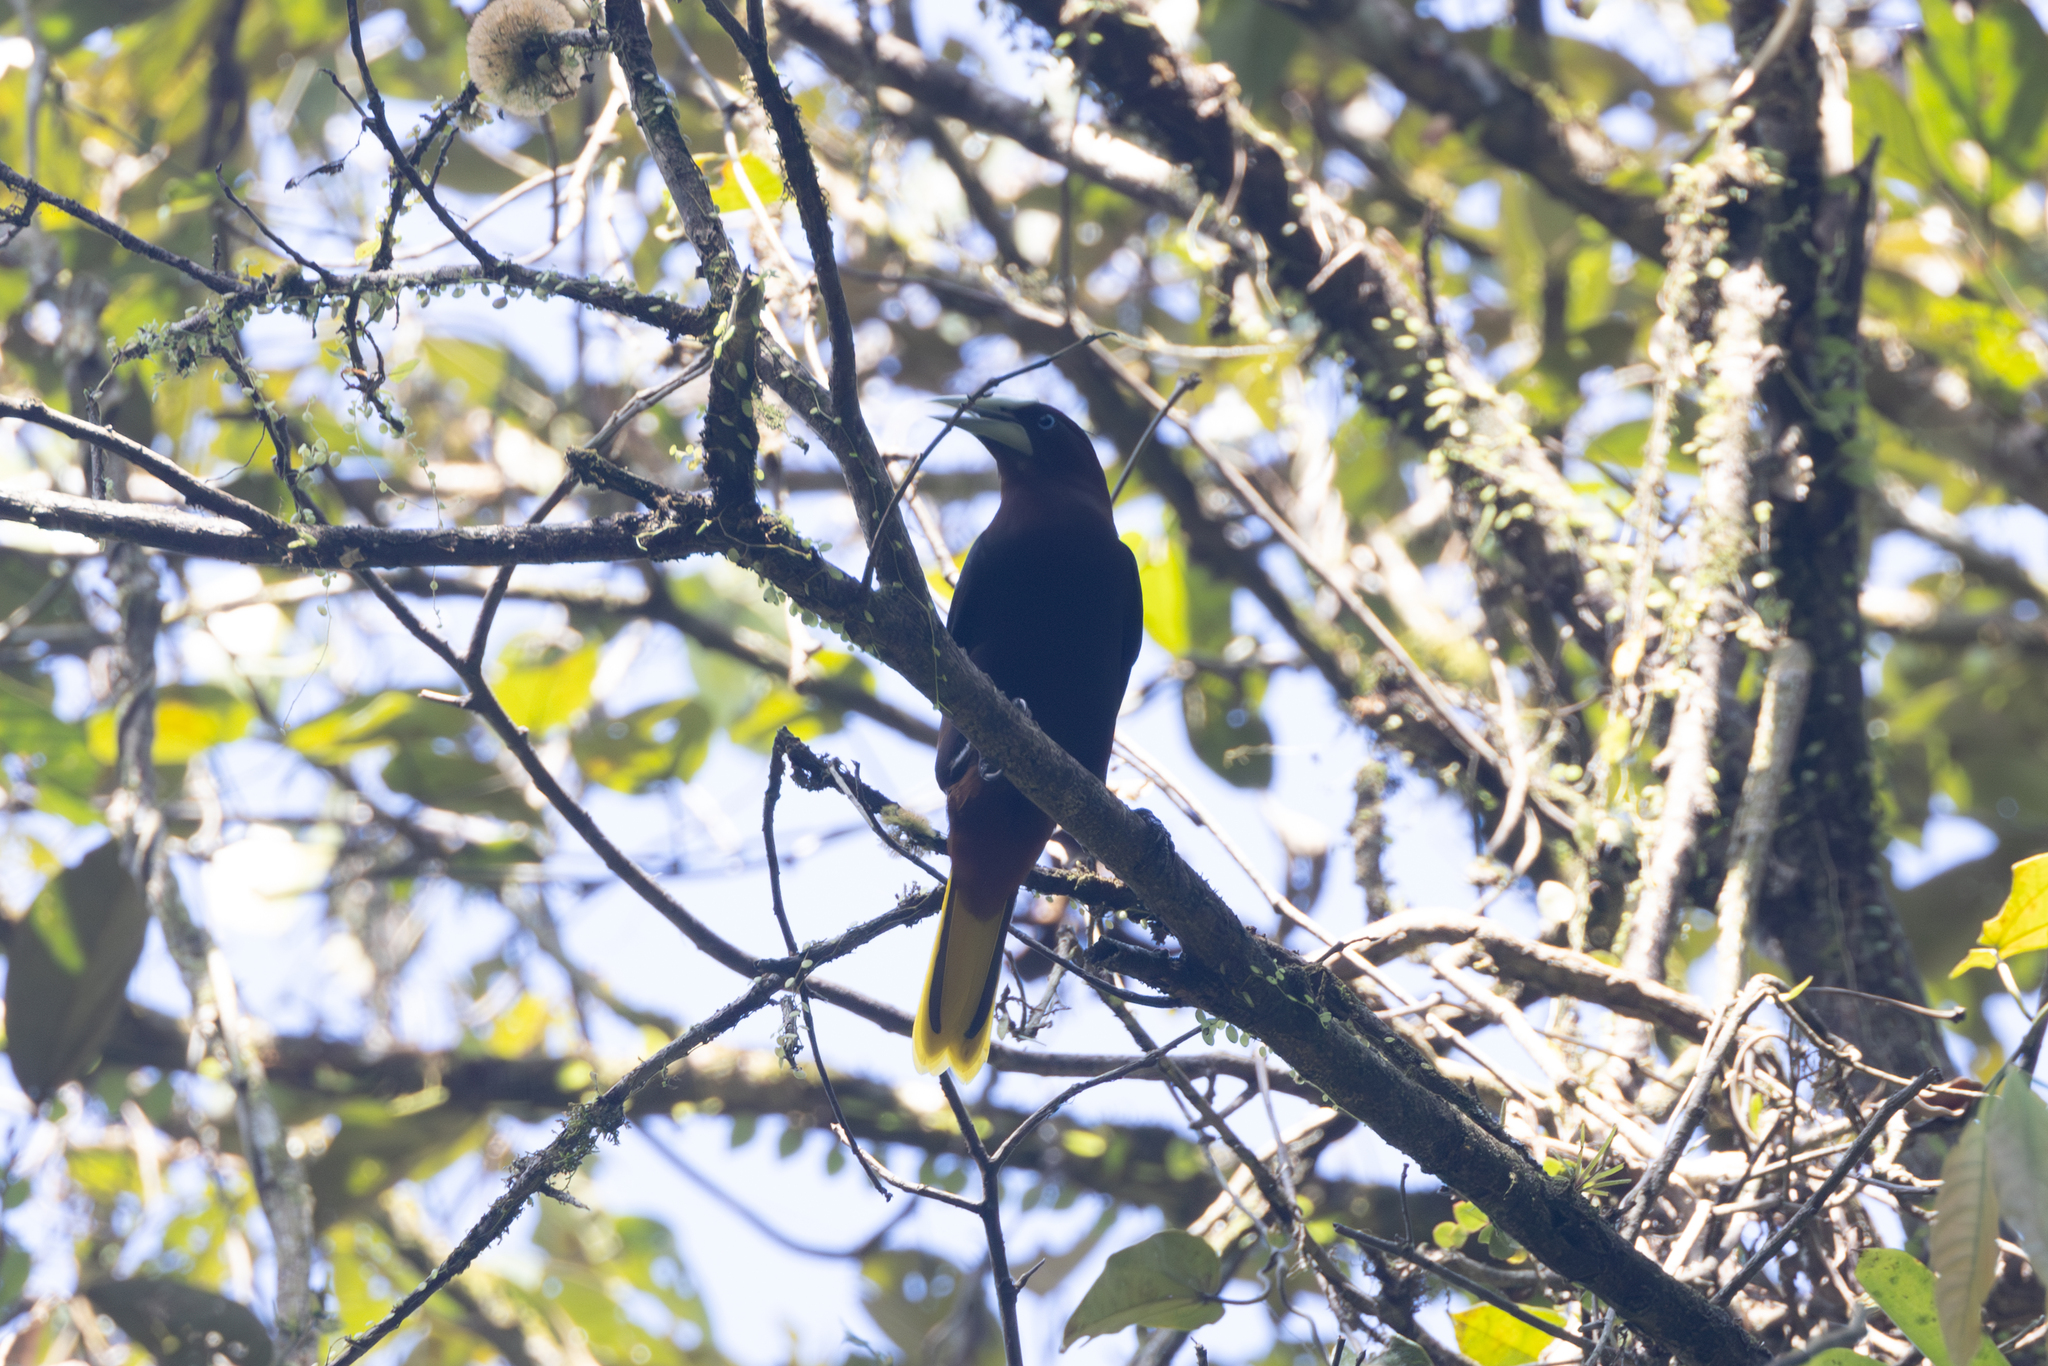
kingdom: Animalia
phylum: Chordata
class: Aves
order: Passeriformes
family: Icteridae
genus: Psarocolius
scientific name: Psarocolius wagleri
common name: Chestnut-headed oropendola
